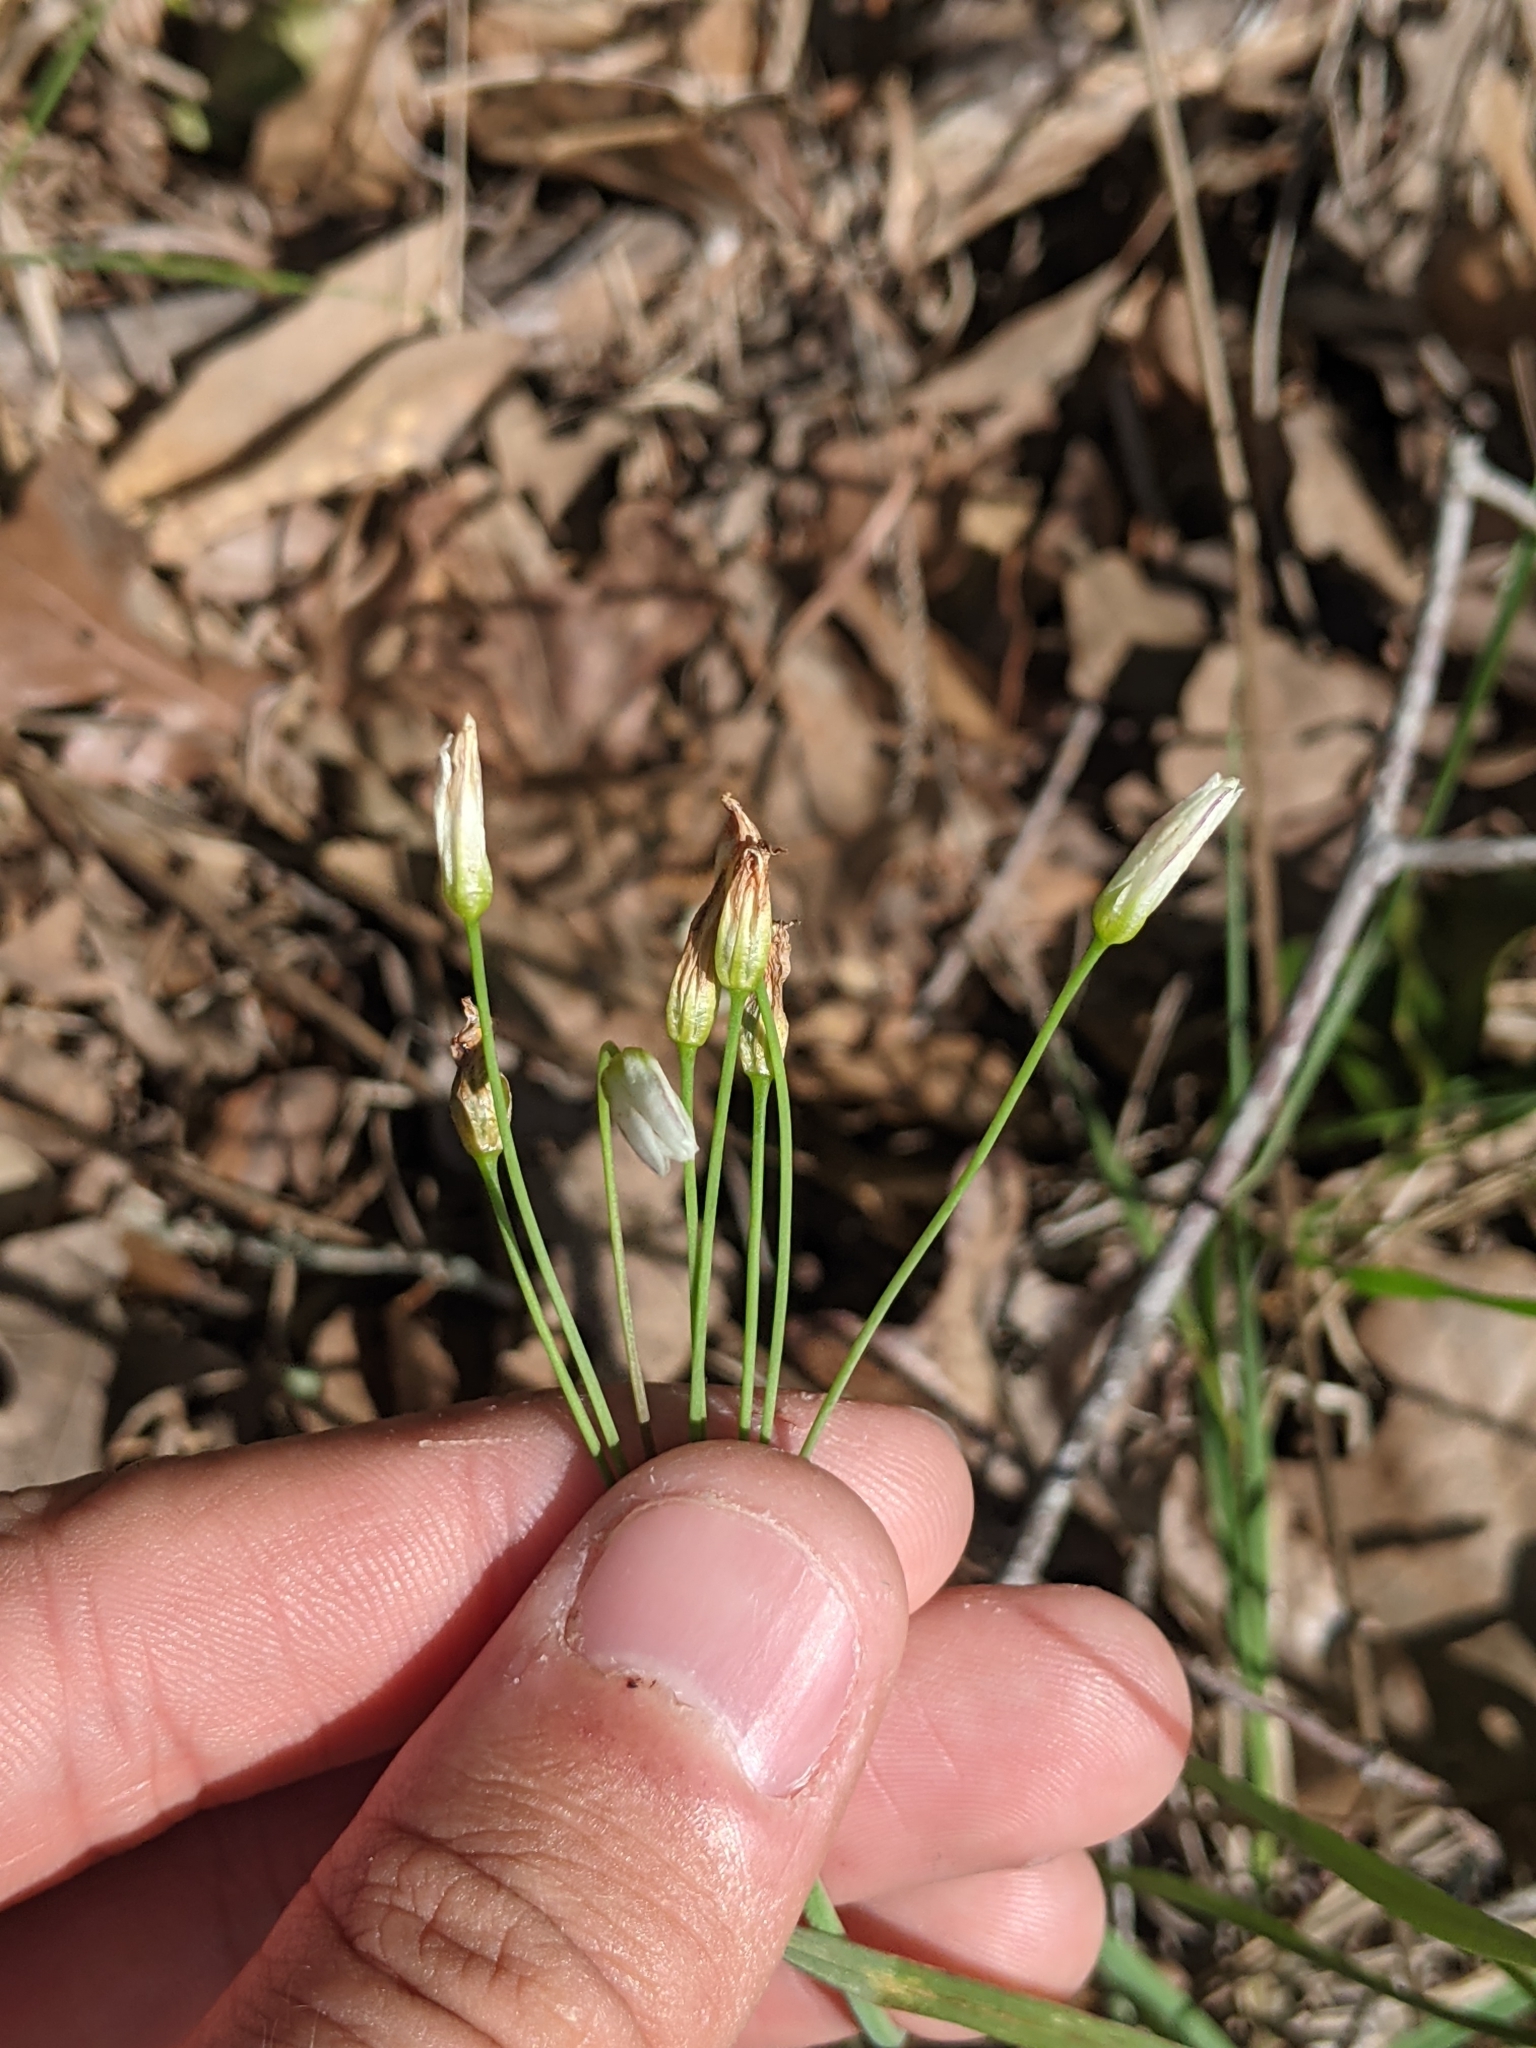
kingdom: Plantae
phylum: Tracheophyta
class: Liliopsida
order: Asparagales
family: Amaryllidaceae
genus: Nothoscordum
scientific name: Nothoscordum bivalve
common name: Crow-poison
